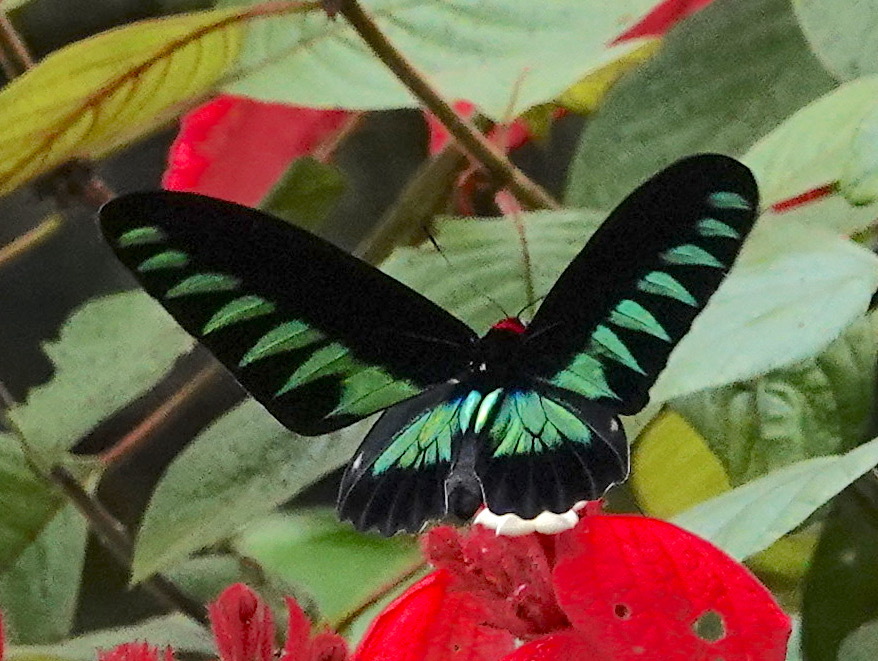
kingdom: Animalia
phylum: Arthropoda
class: Insecta
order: Lepidoptera
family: Papilionidae
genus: Trogonoptera
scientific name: Trogonoptera brookiana
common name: Raja brooke's birdwing
